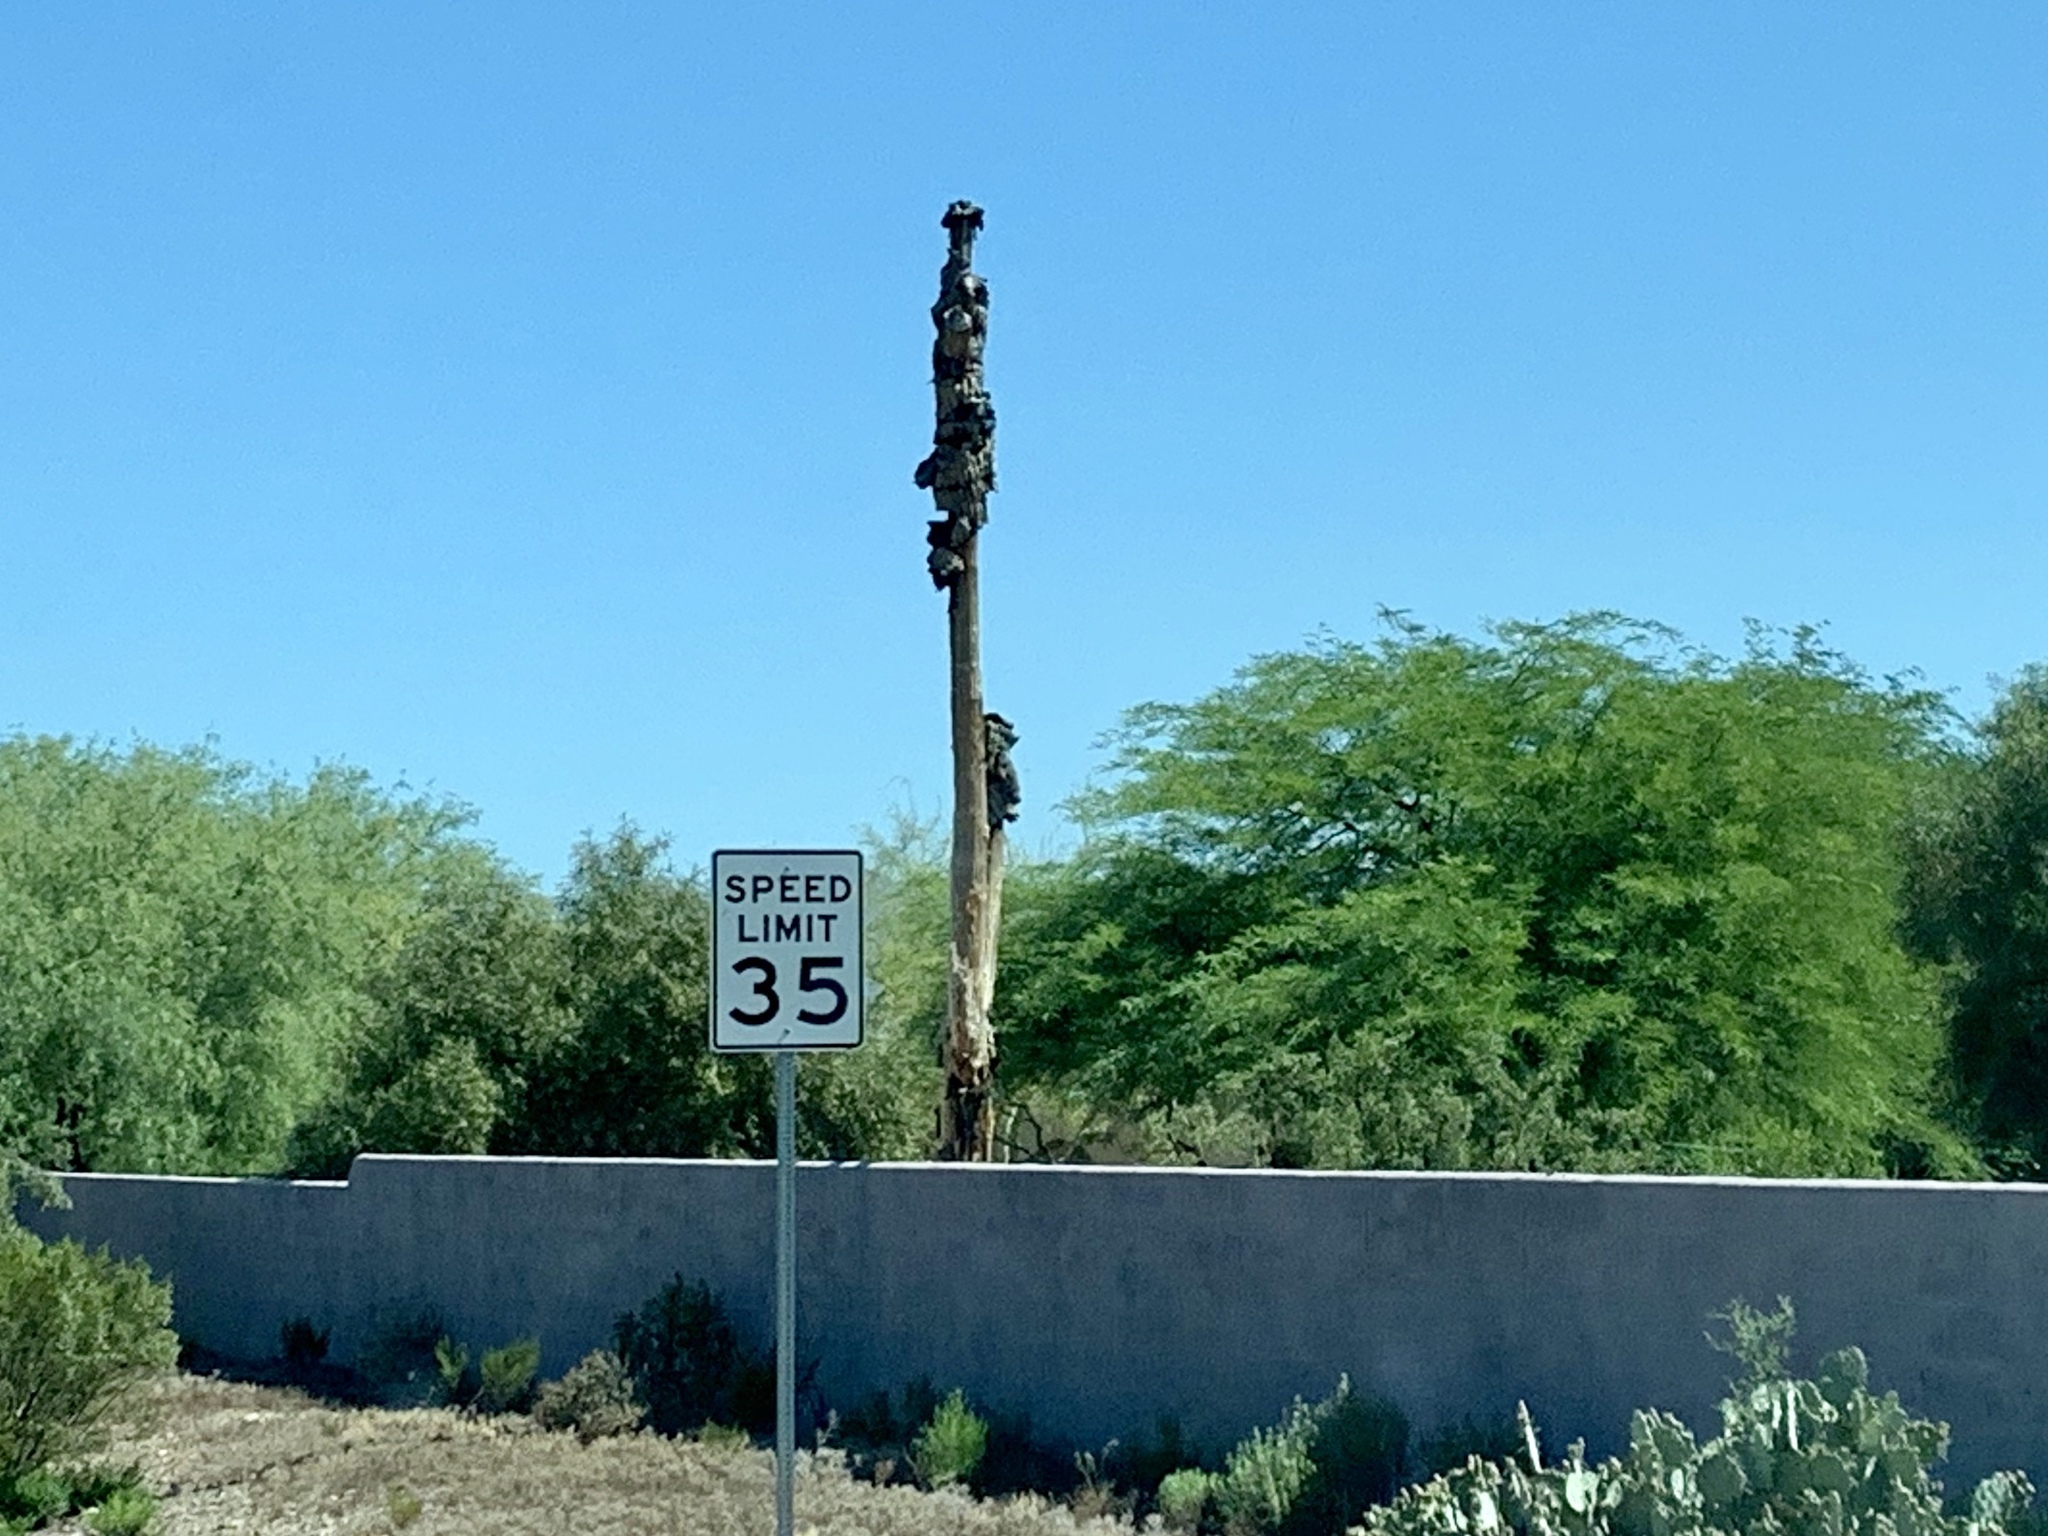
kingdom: Plantae
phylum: Tracheophyta
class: Magnoliopsida
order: Caryophyllales
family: Cactaceae
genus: Carnegiea
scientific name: Carnegiea gigantea
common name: Saguaro
